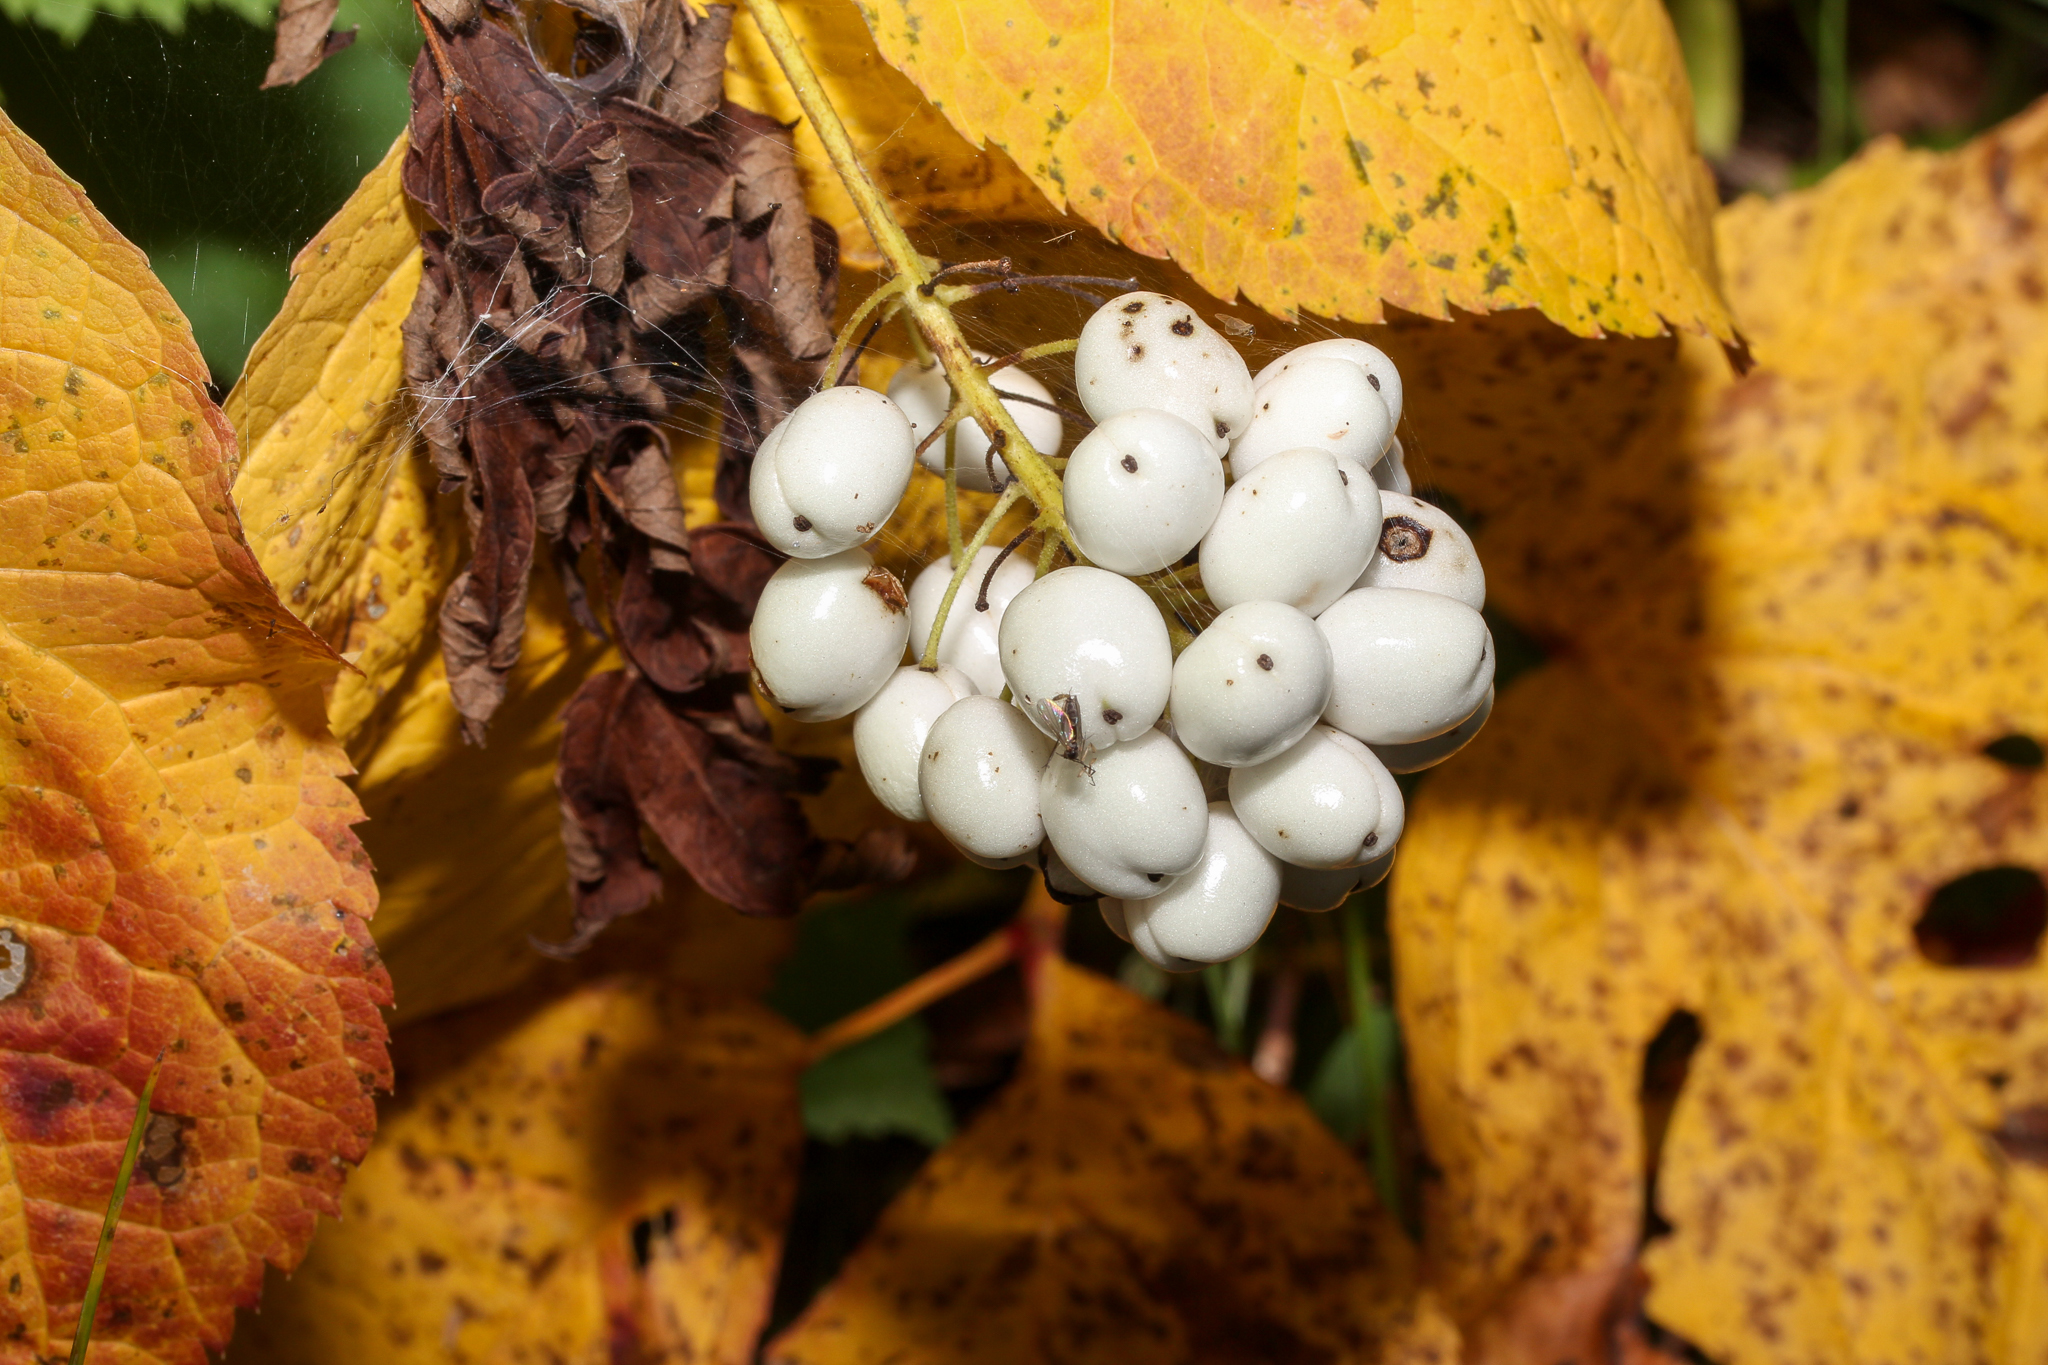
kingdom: Plantae
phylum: Tracheophyta
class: Magnoliopsida
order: Ranunculales
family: Ranunculaceae
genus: Actaea
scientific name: Actaea rubra
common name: Red baneberry
